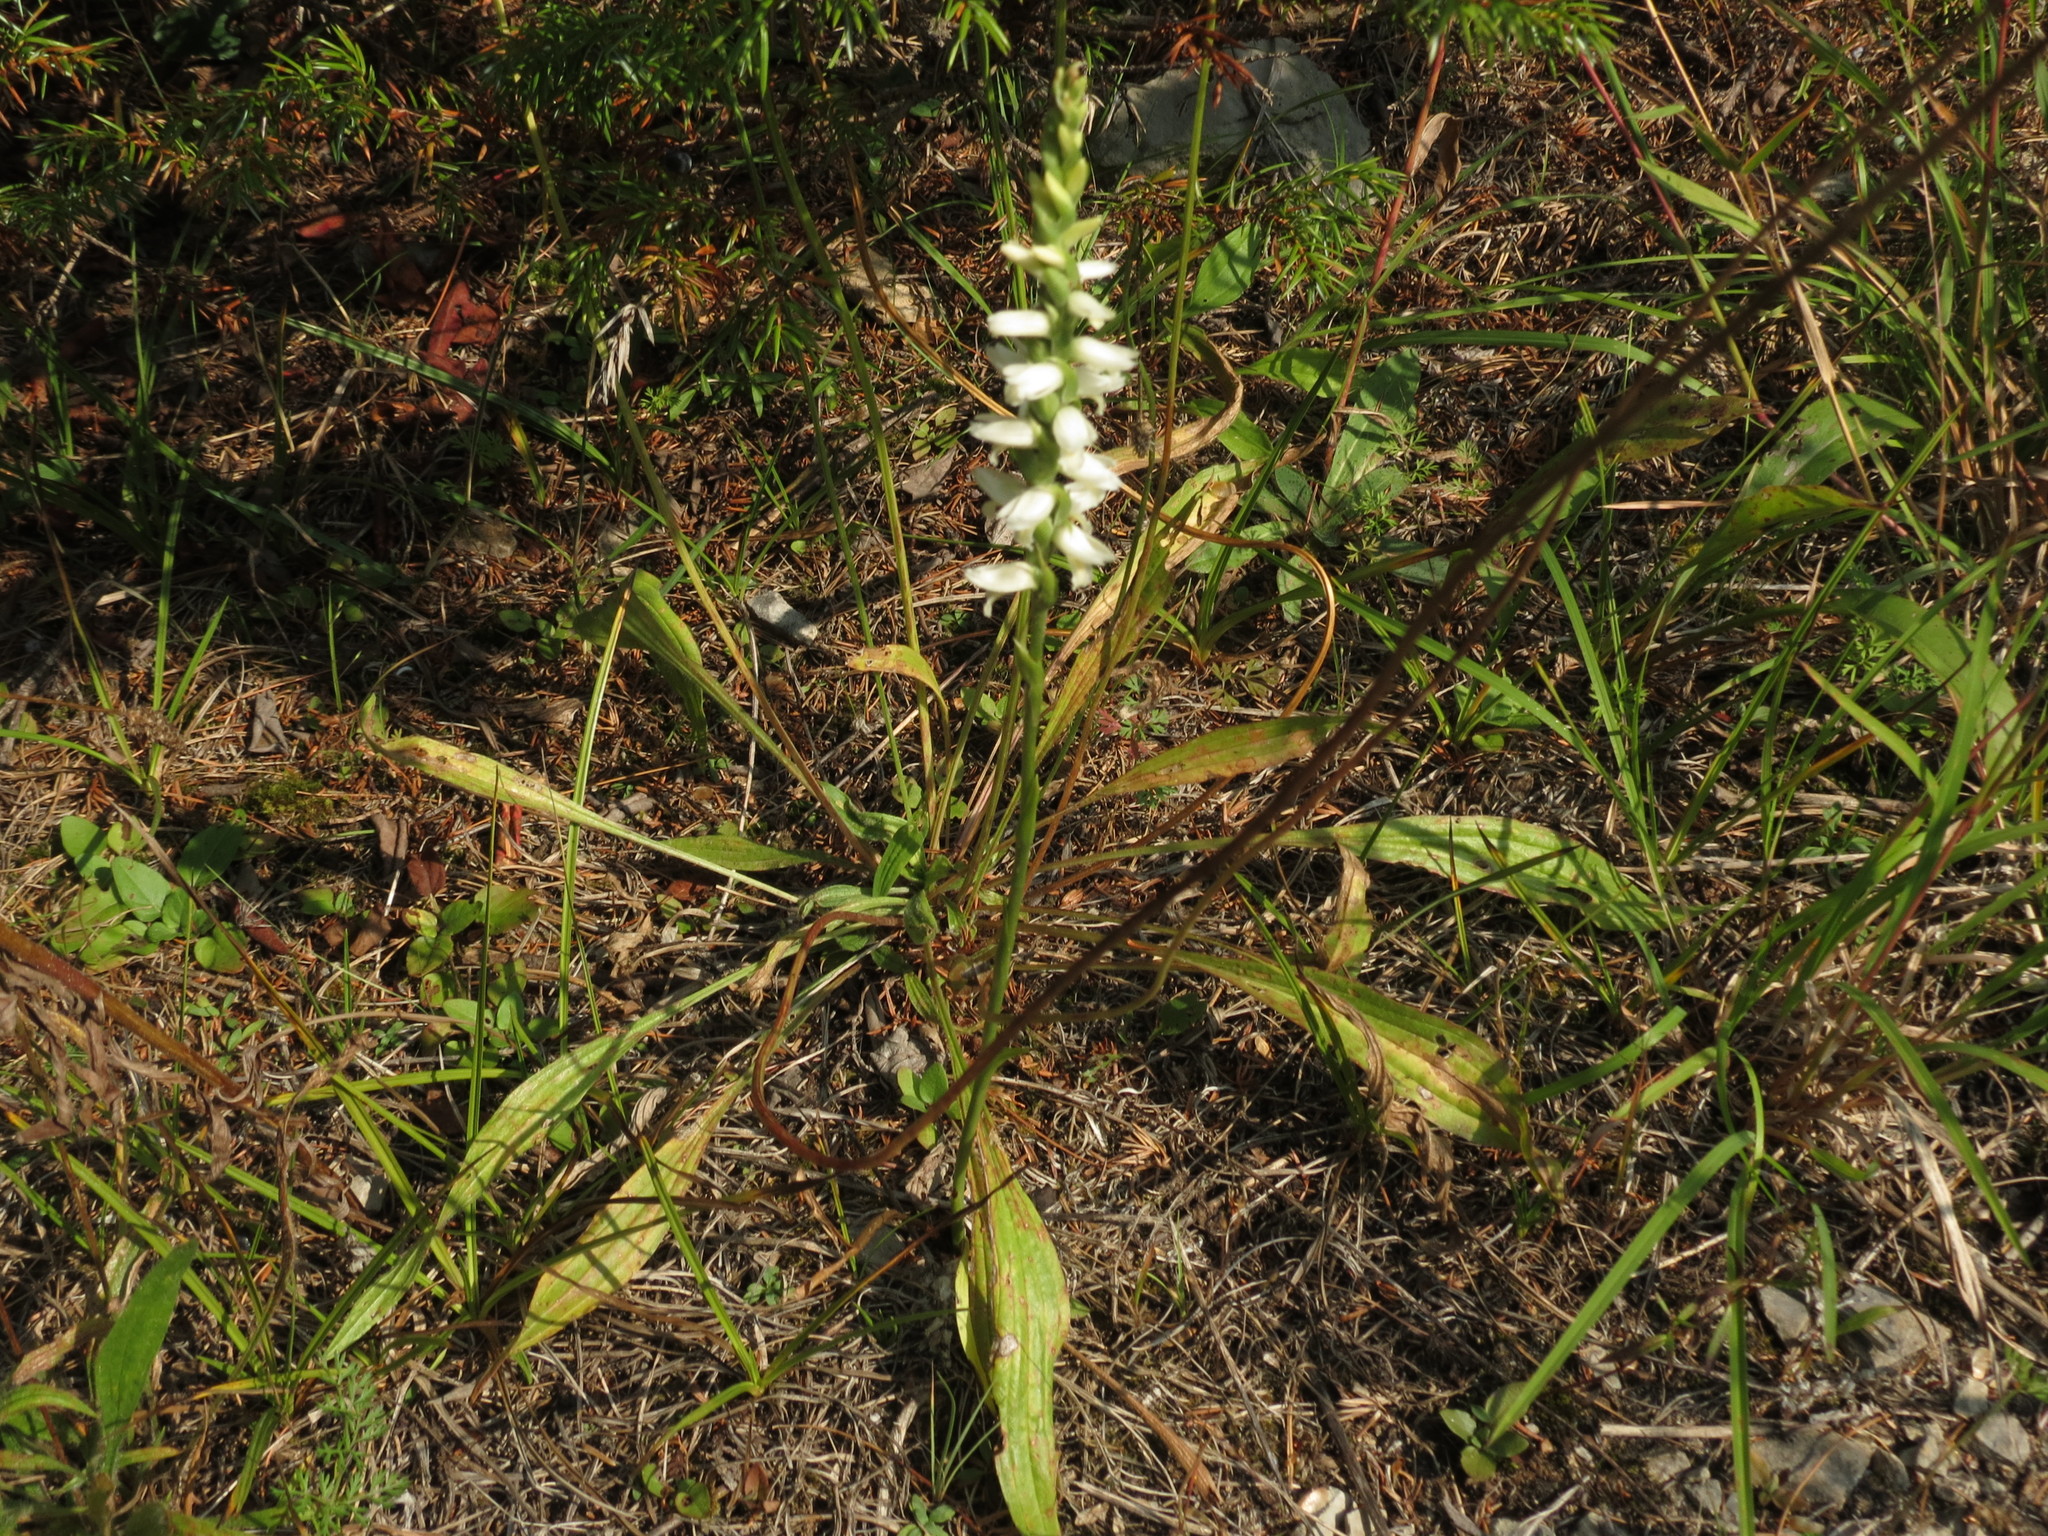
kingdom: Plantae
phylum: Tracheophyta
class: Liliopsida
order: Asparagales
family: Orchidaceae
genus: Spiranthes
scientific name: Spiranthes magnicamporum
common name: Great plains ladies'-tresses
